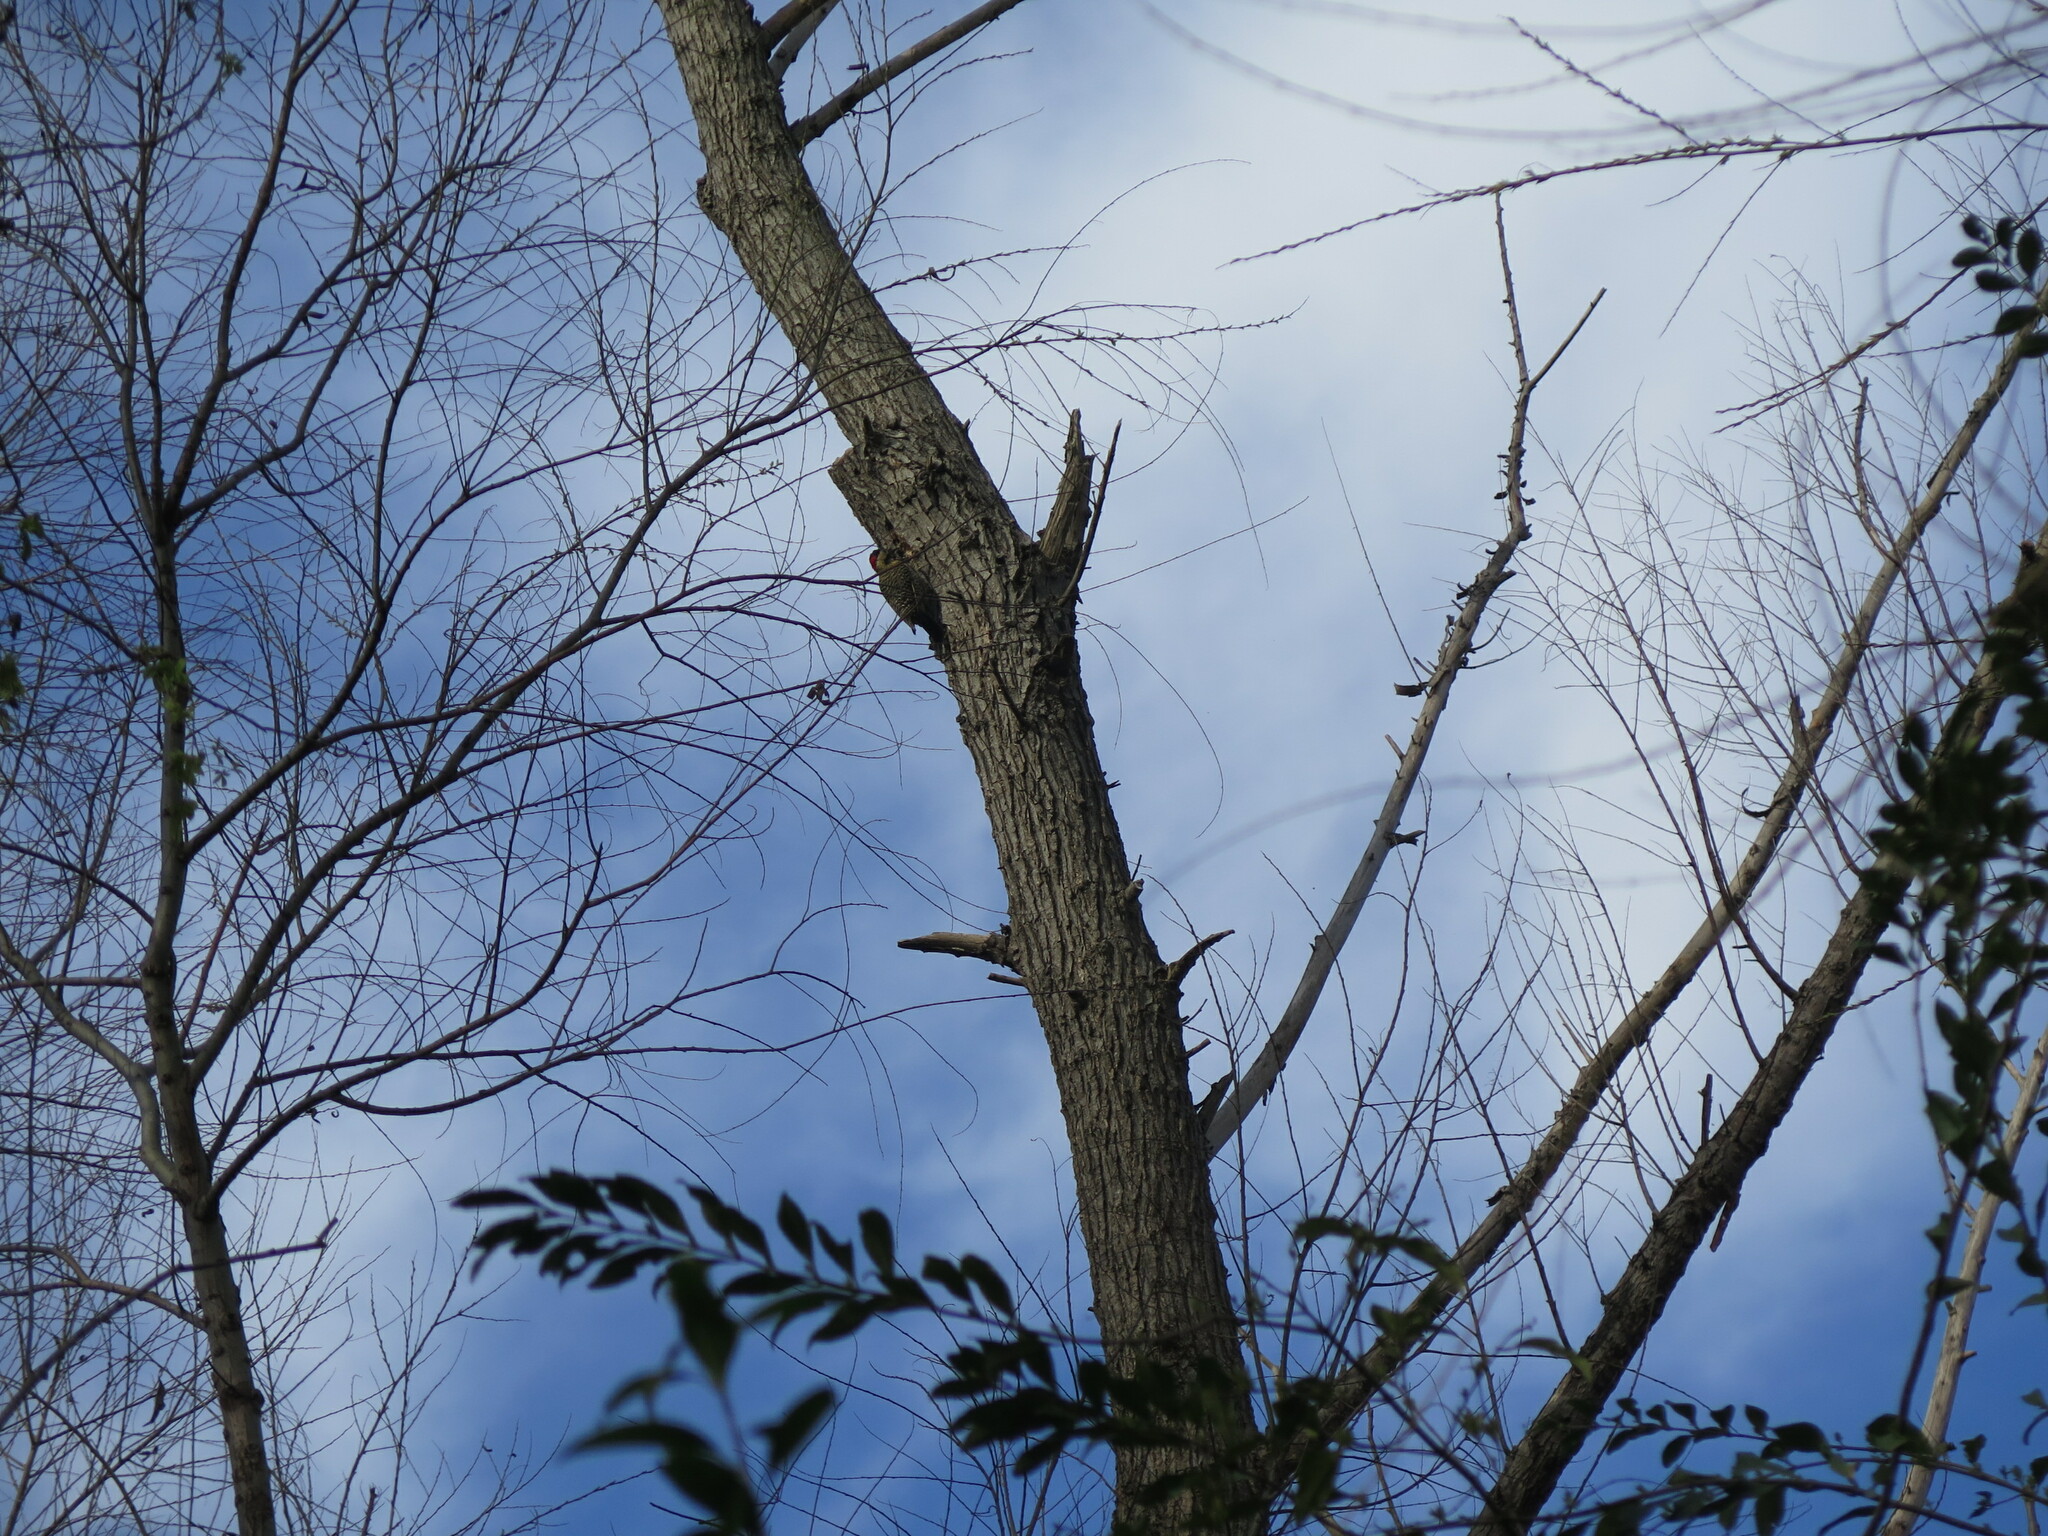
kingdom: Animalia
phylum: Chordata
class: Aves
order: Piciformes
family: Picidae
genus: Colaptes
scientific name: Colaptes melanochloros
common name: Green-barred woodpecker
